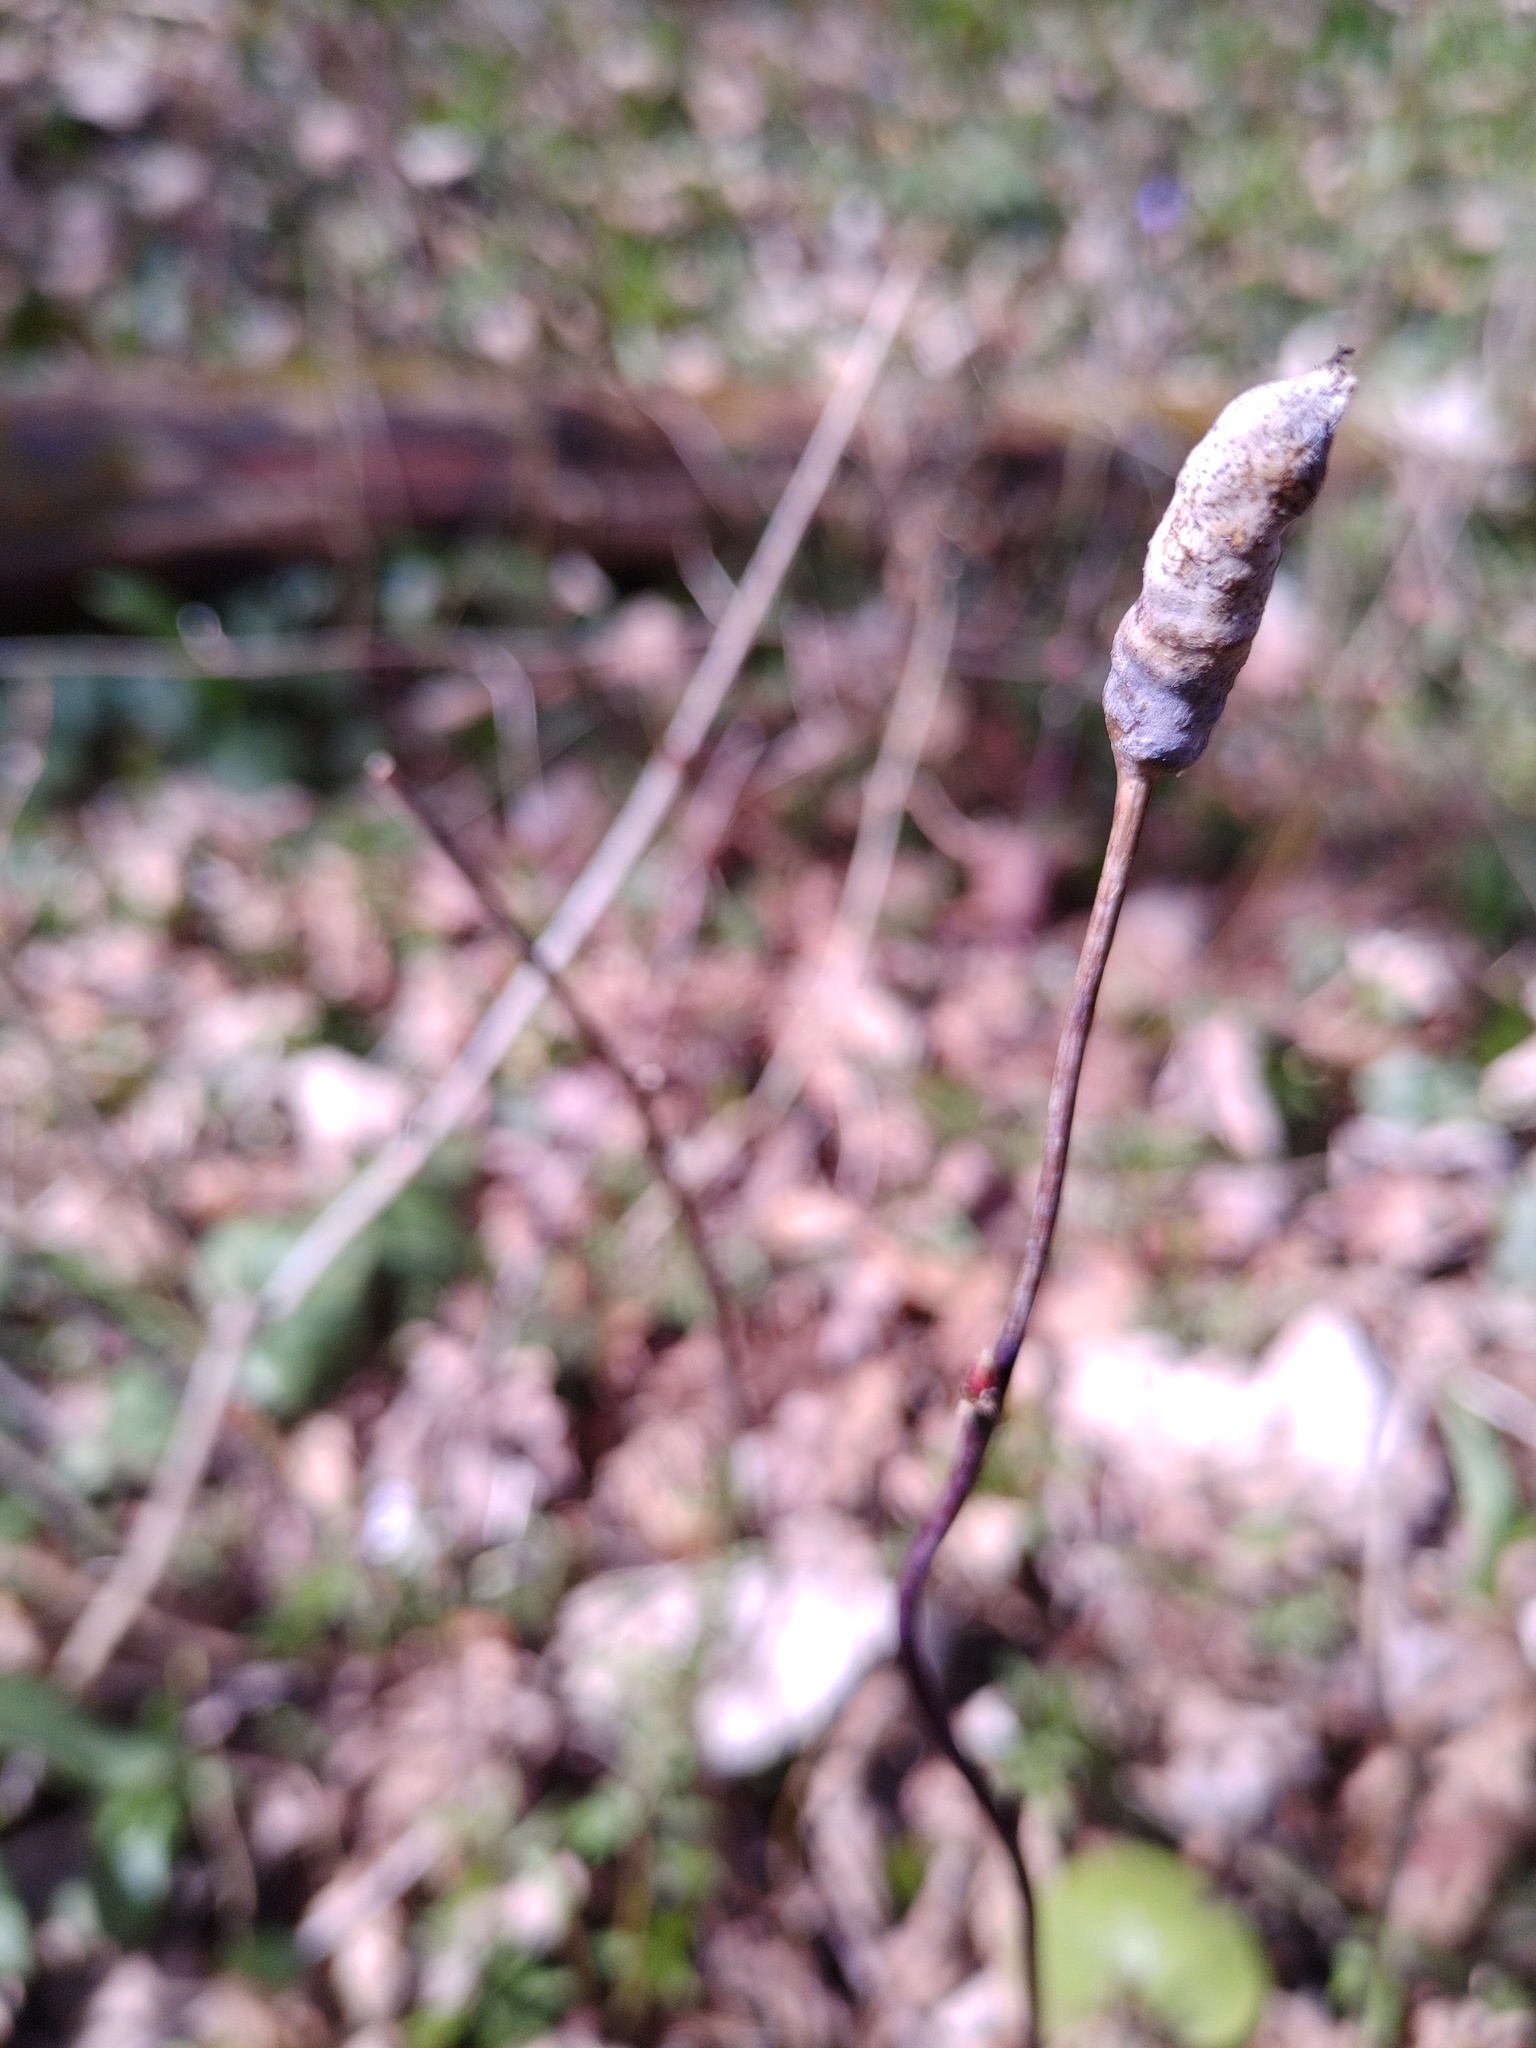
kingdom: Animalia
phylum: Arthropoda
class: Insecta
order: Hymenoptera
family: Cynipidae
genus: Diastrophus
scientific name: Diastrophus rubi
